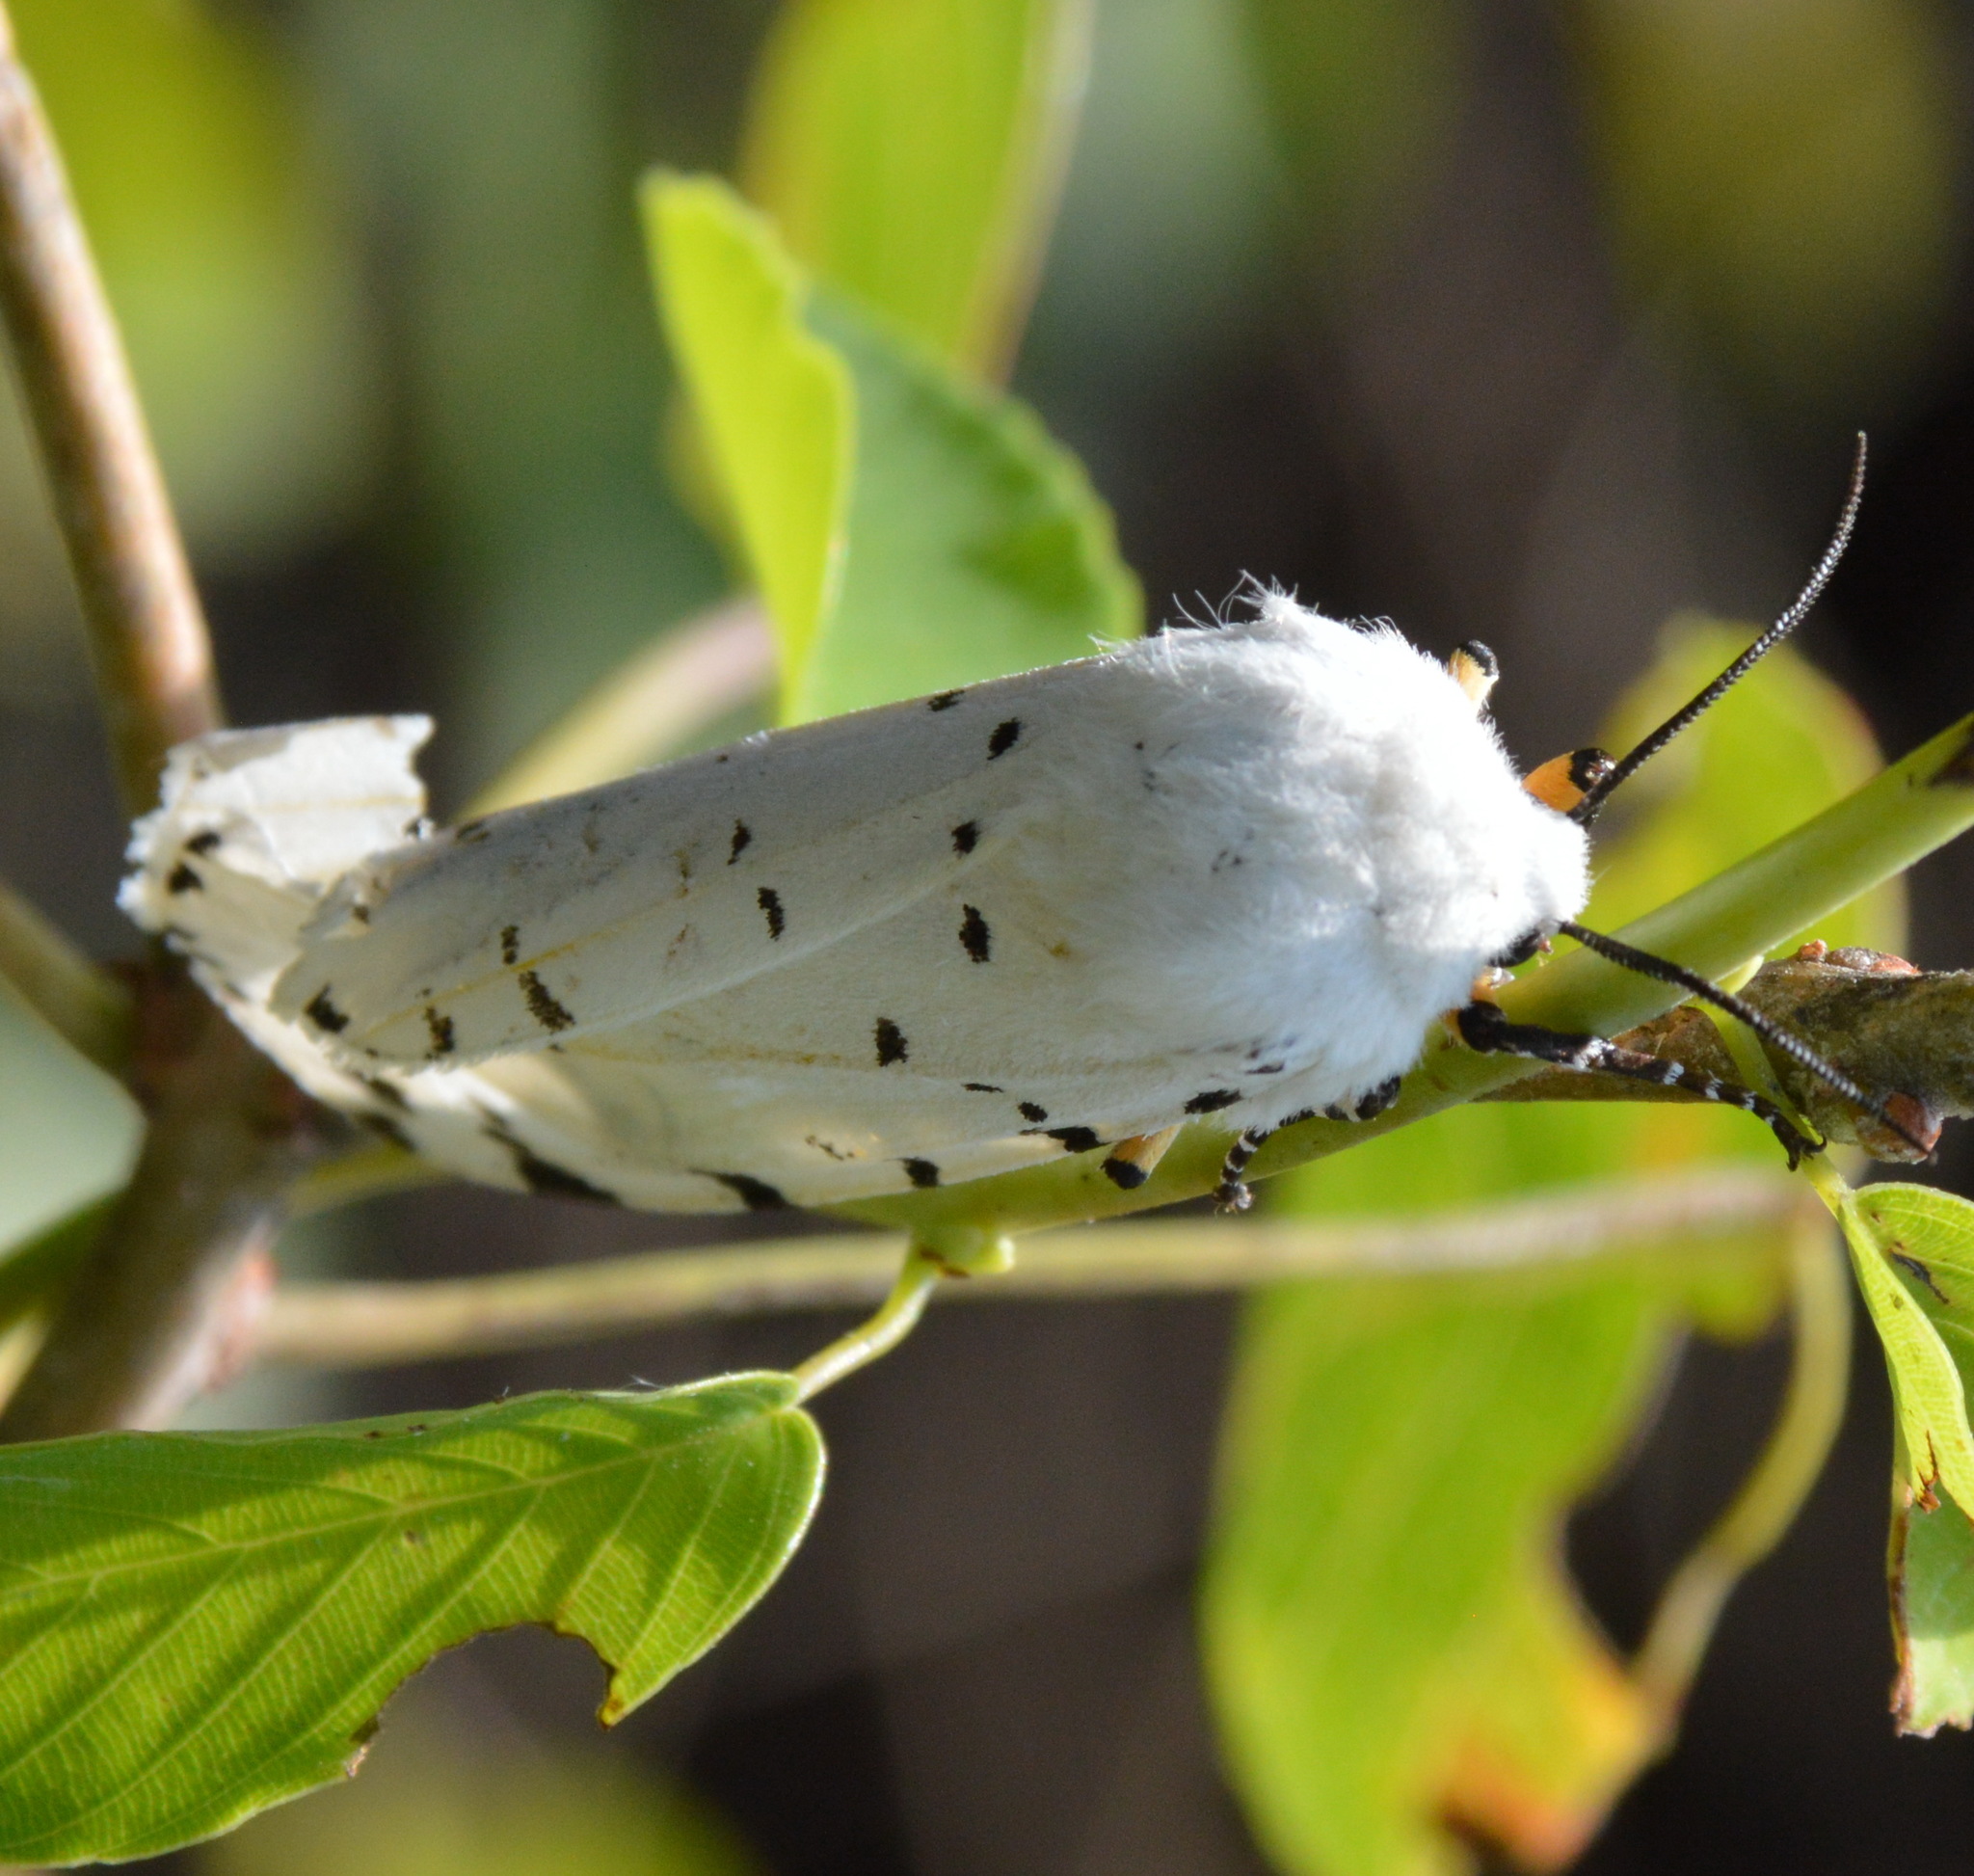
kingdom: Animalia
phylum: Arthropoda
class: Insecta
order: Lepidoptera
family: Erebidae
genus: Estigmene
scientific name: Estigmene acrea
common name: Salt marsh moth
